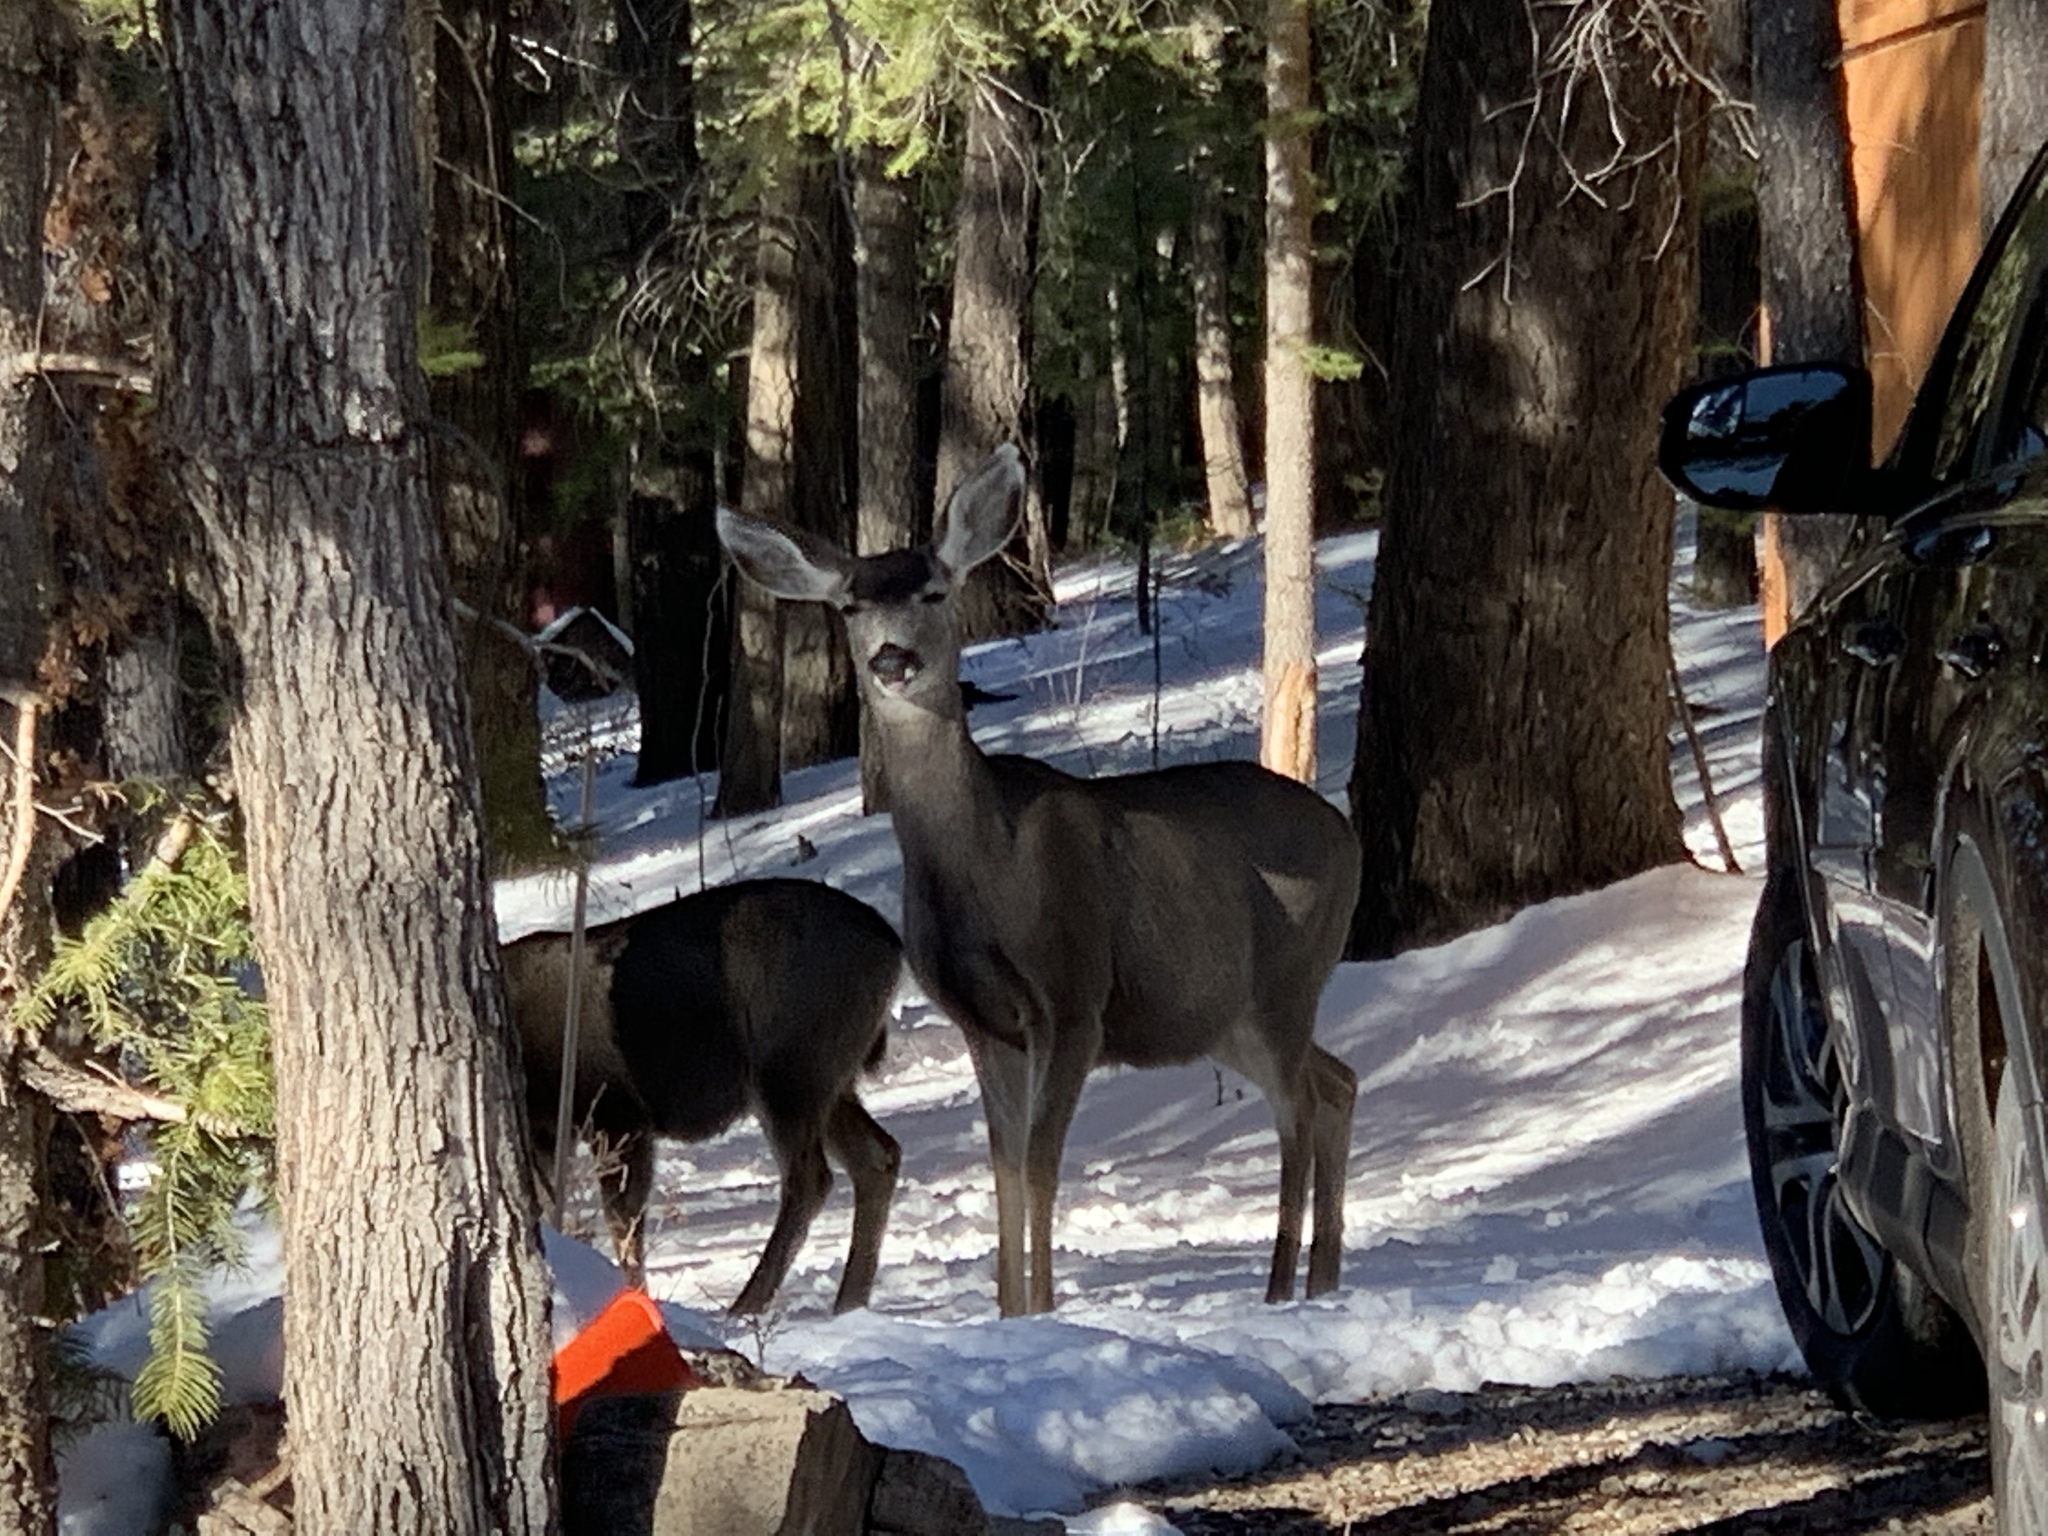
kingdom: Animalia
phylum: Chordata
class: Mammalia
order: Artiodactyla
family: Cervidae
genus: Odocoileus
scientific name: Odocoileus hemionus
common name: Mule deer
